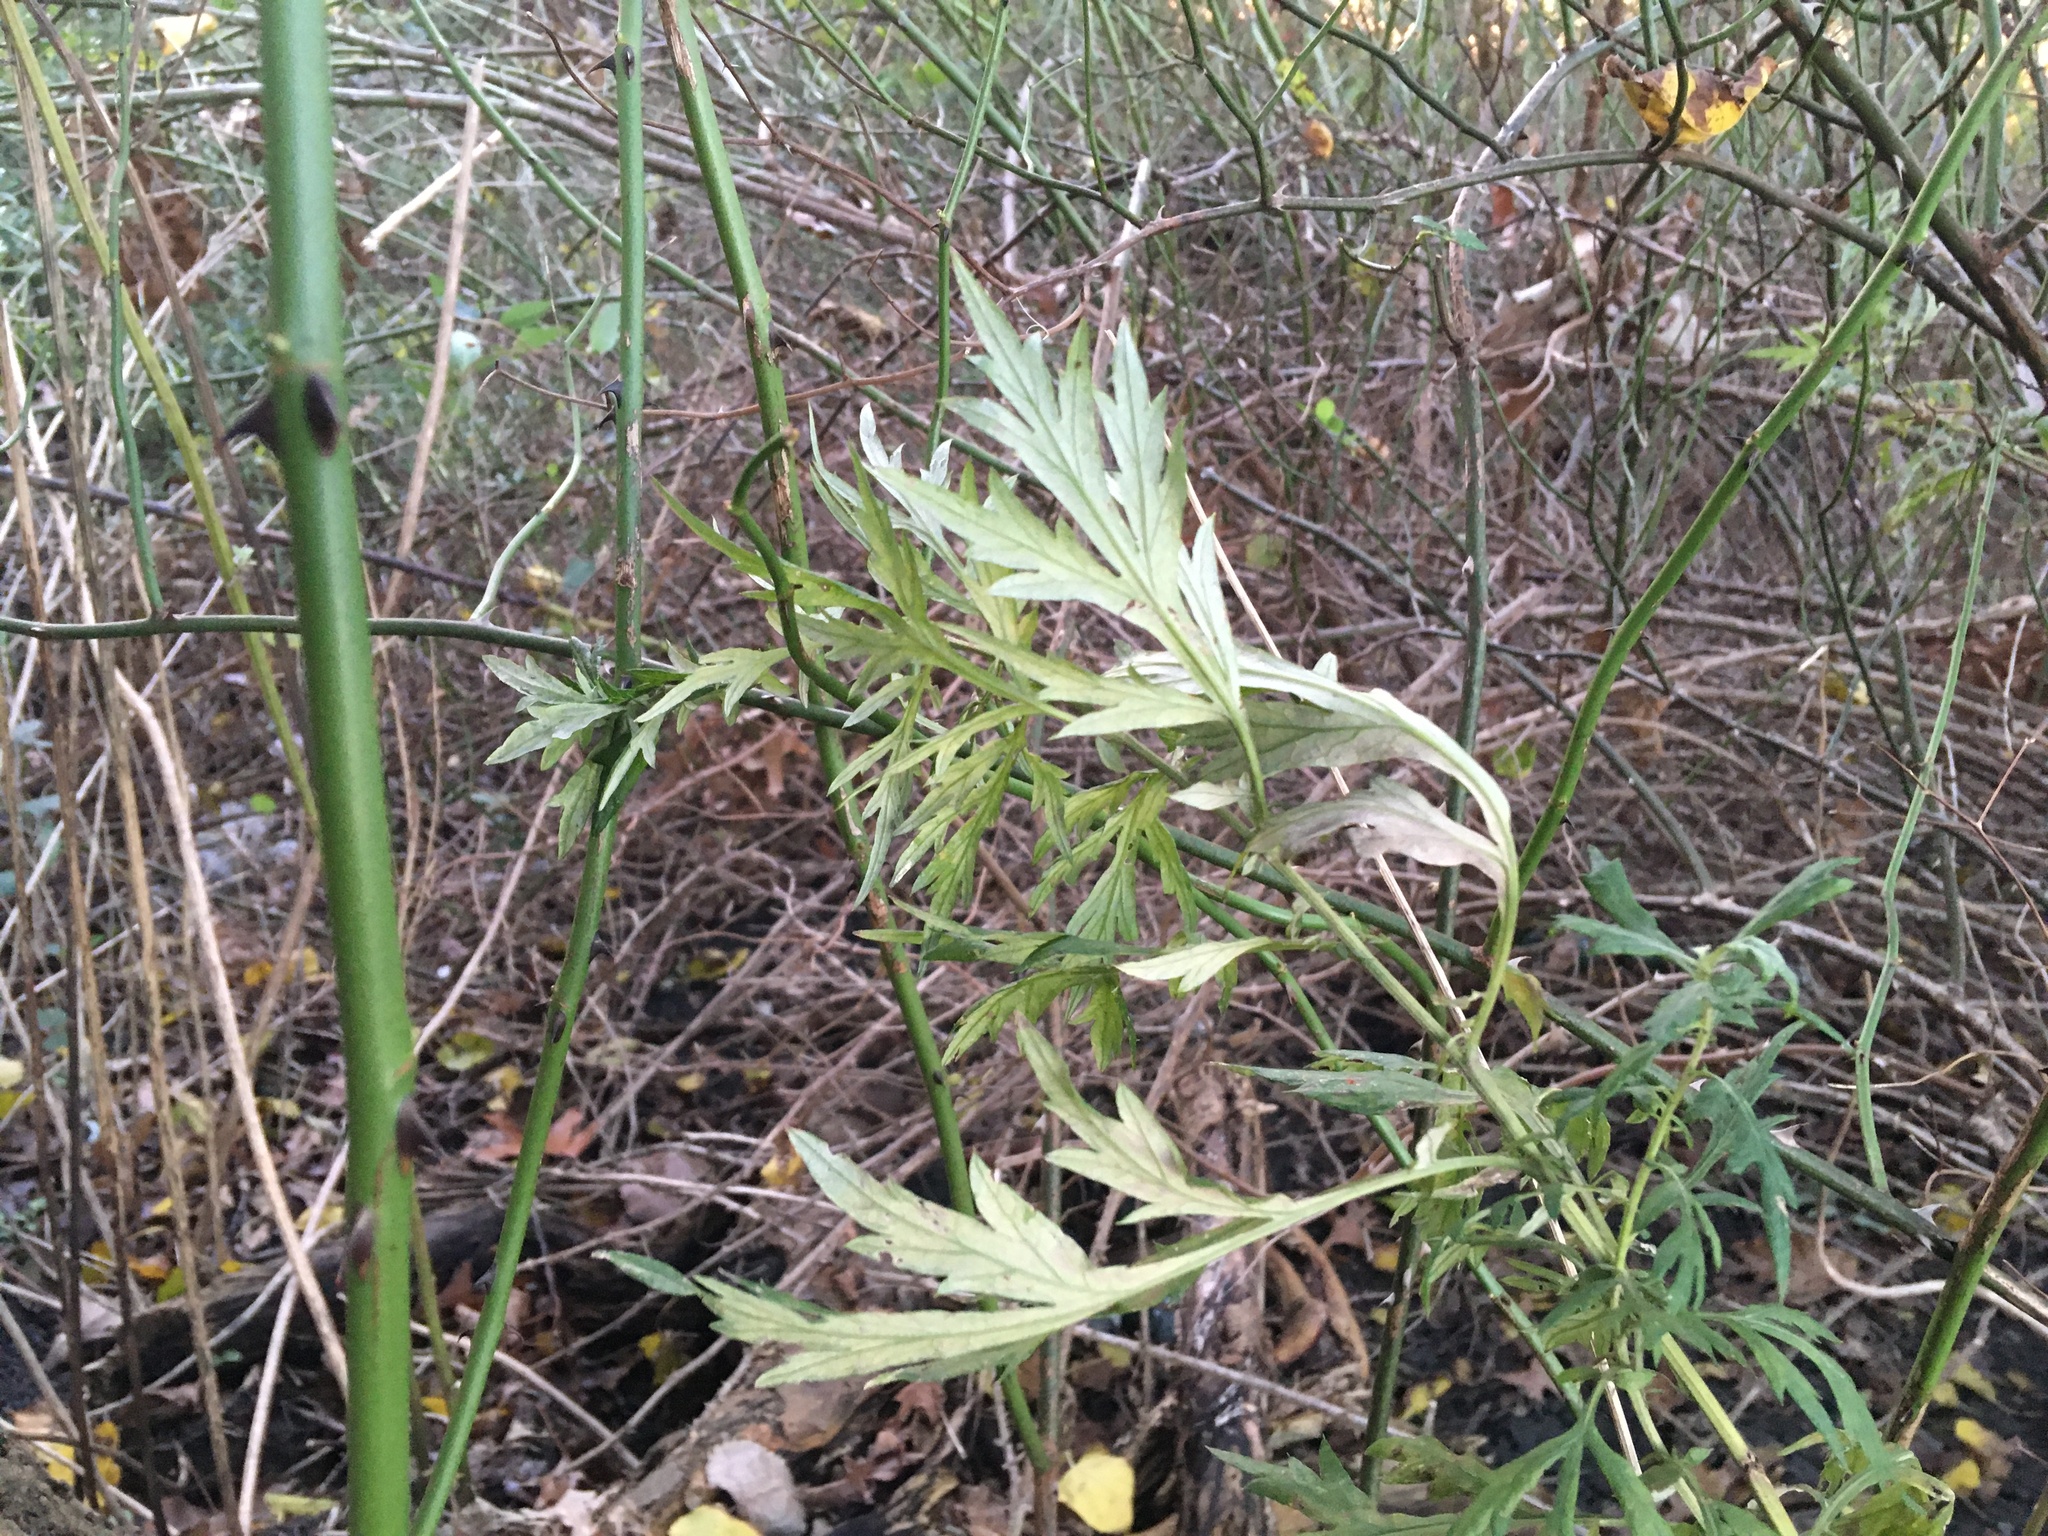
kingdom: Plantae
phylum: Tracheophyta
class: Magnoliopsida
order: Asterales
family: Asteraceae
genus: Artemisia
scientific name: Artemisia vulgaris
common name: Mugwort
